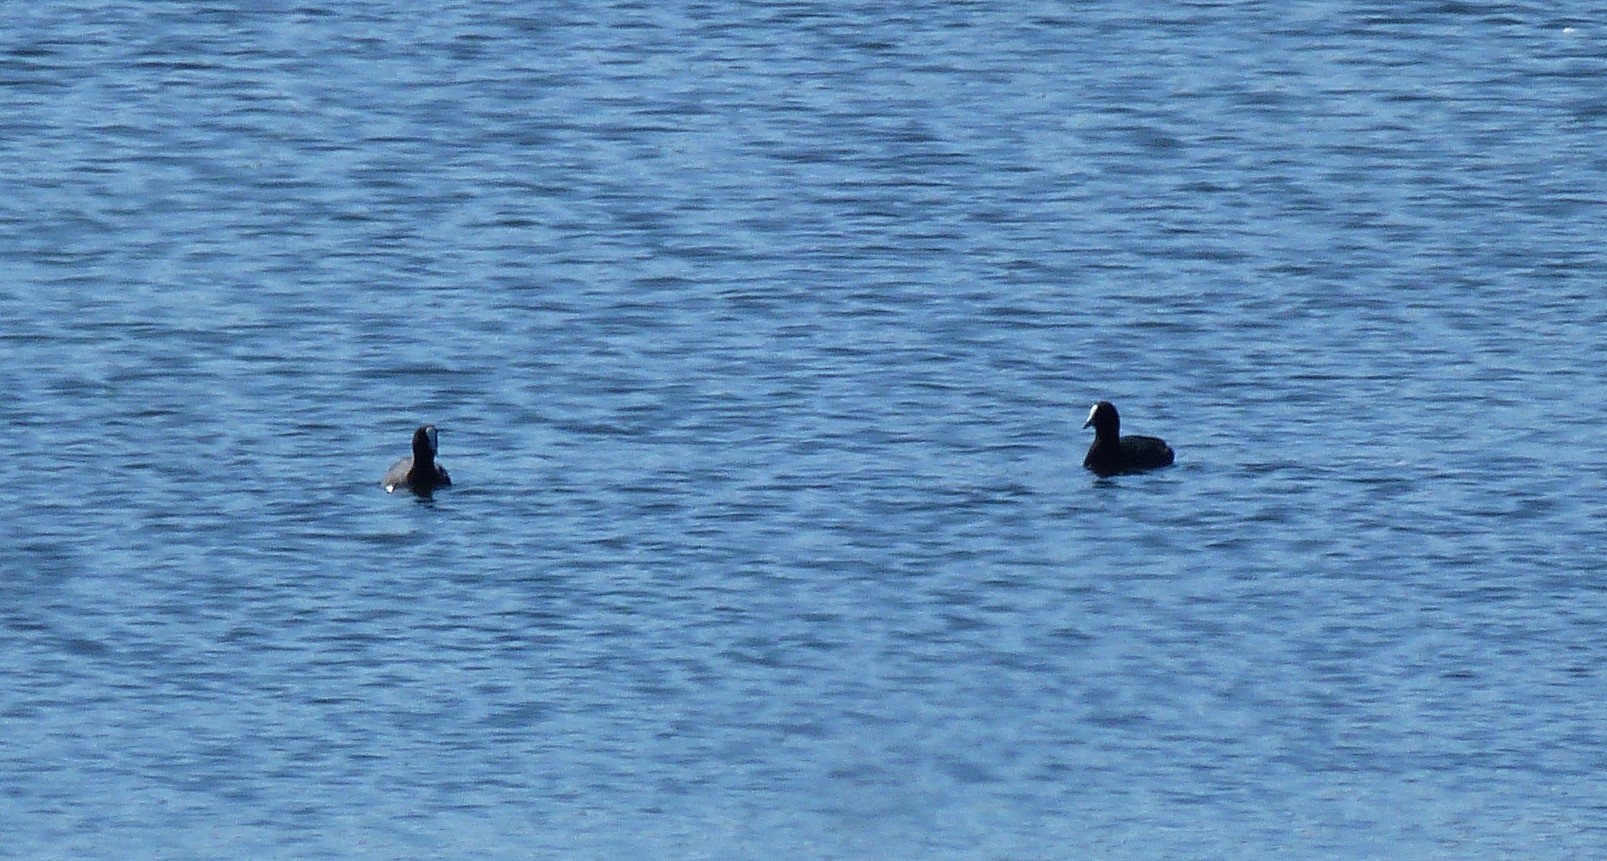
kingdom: Animalia
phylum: Chordata
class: Aves
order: Gruiformes
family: Rallidae
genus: Fulica
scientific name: Fulica atra
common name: Eurasian coot
